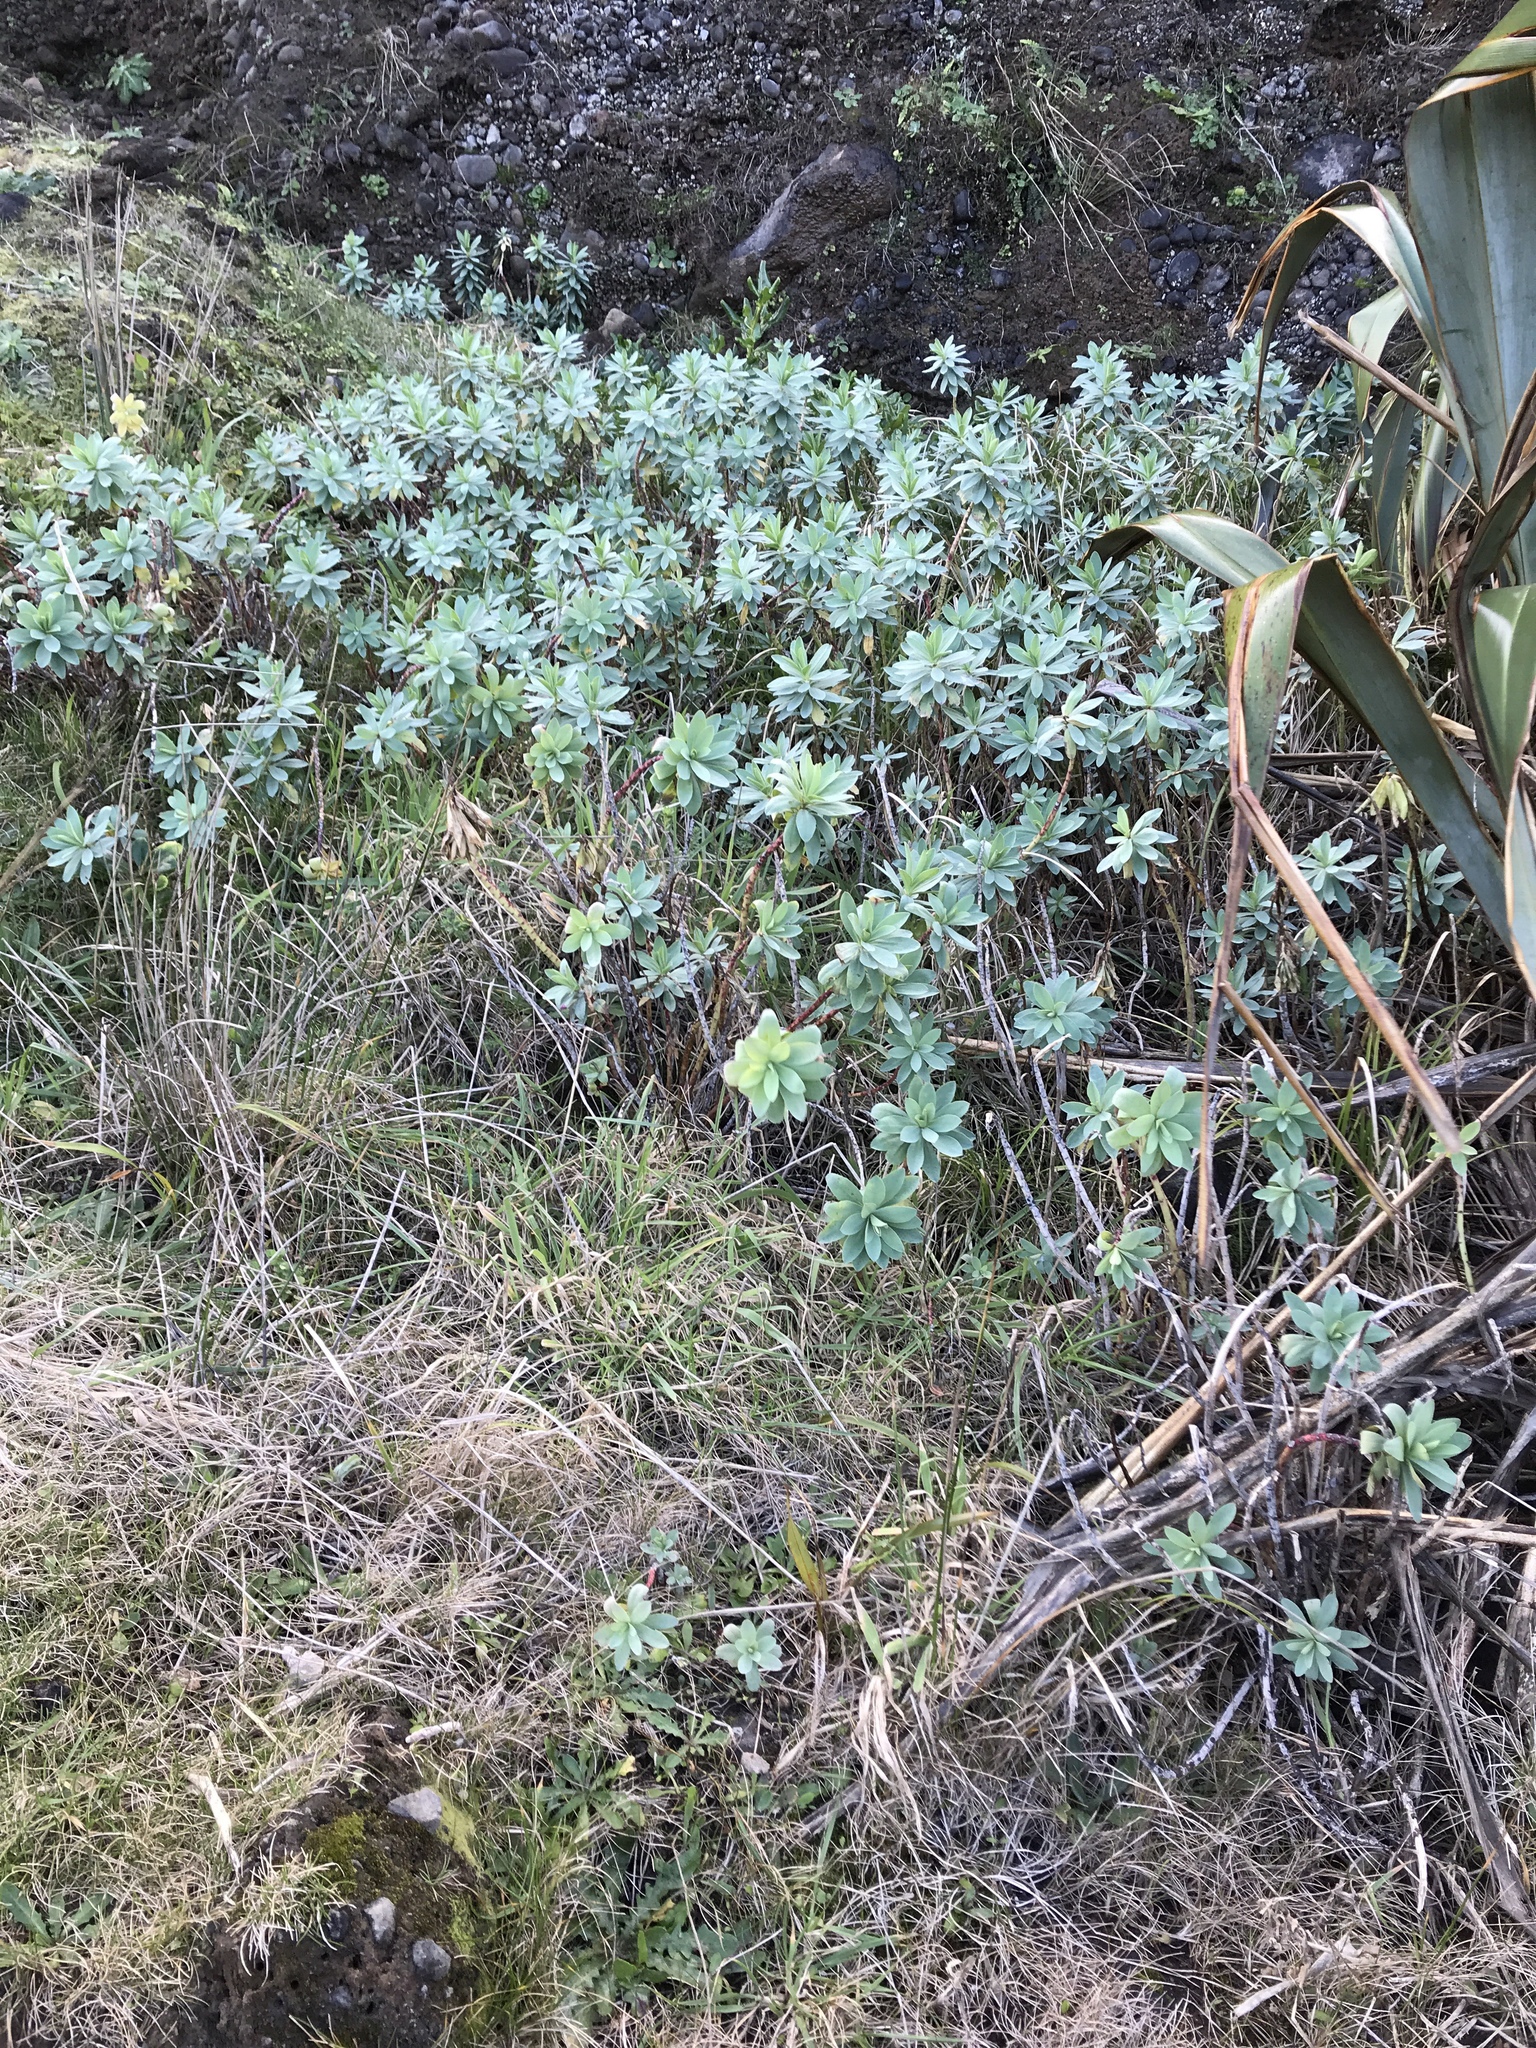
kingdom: Plantae
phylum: Tracheophyta
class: Magnoliopsida
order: Malpighiales
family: Euphorbiaceae
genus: Euphorbia
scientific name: Euphorbia glauca
